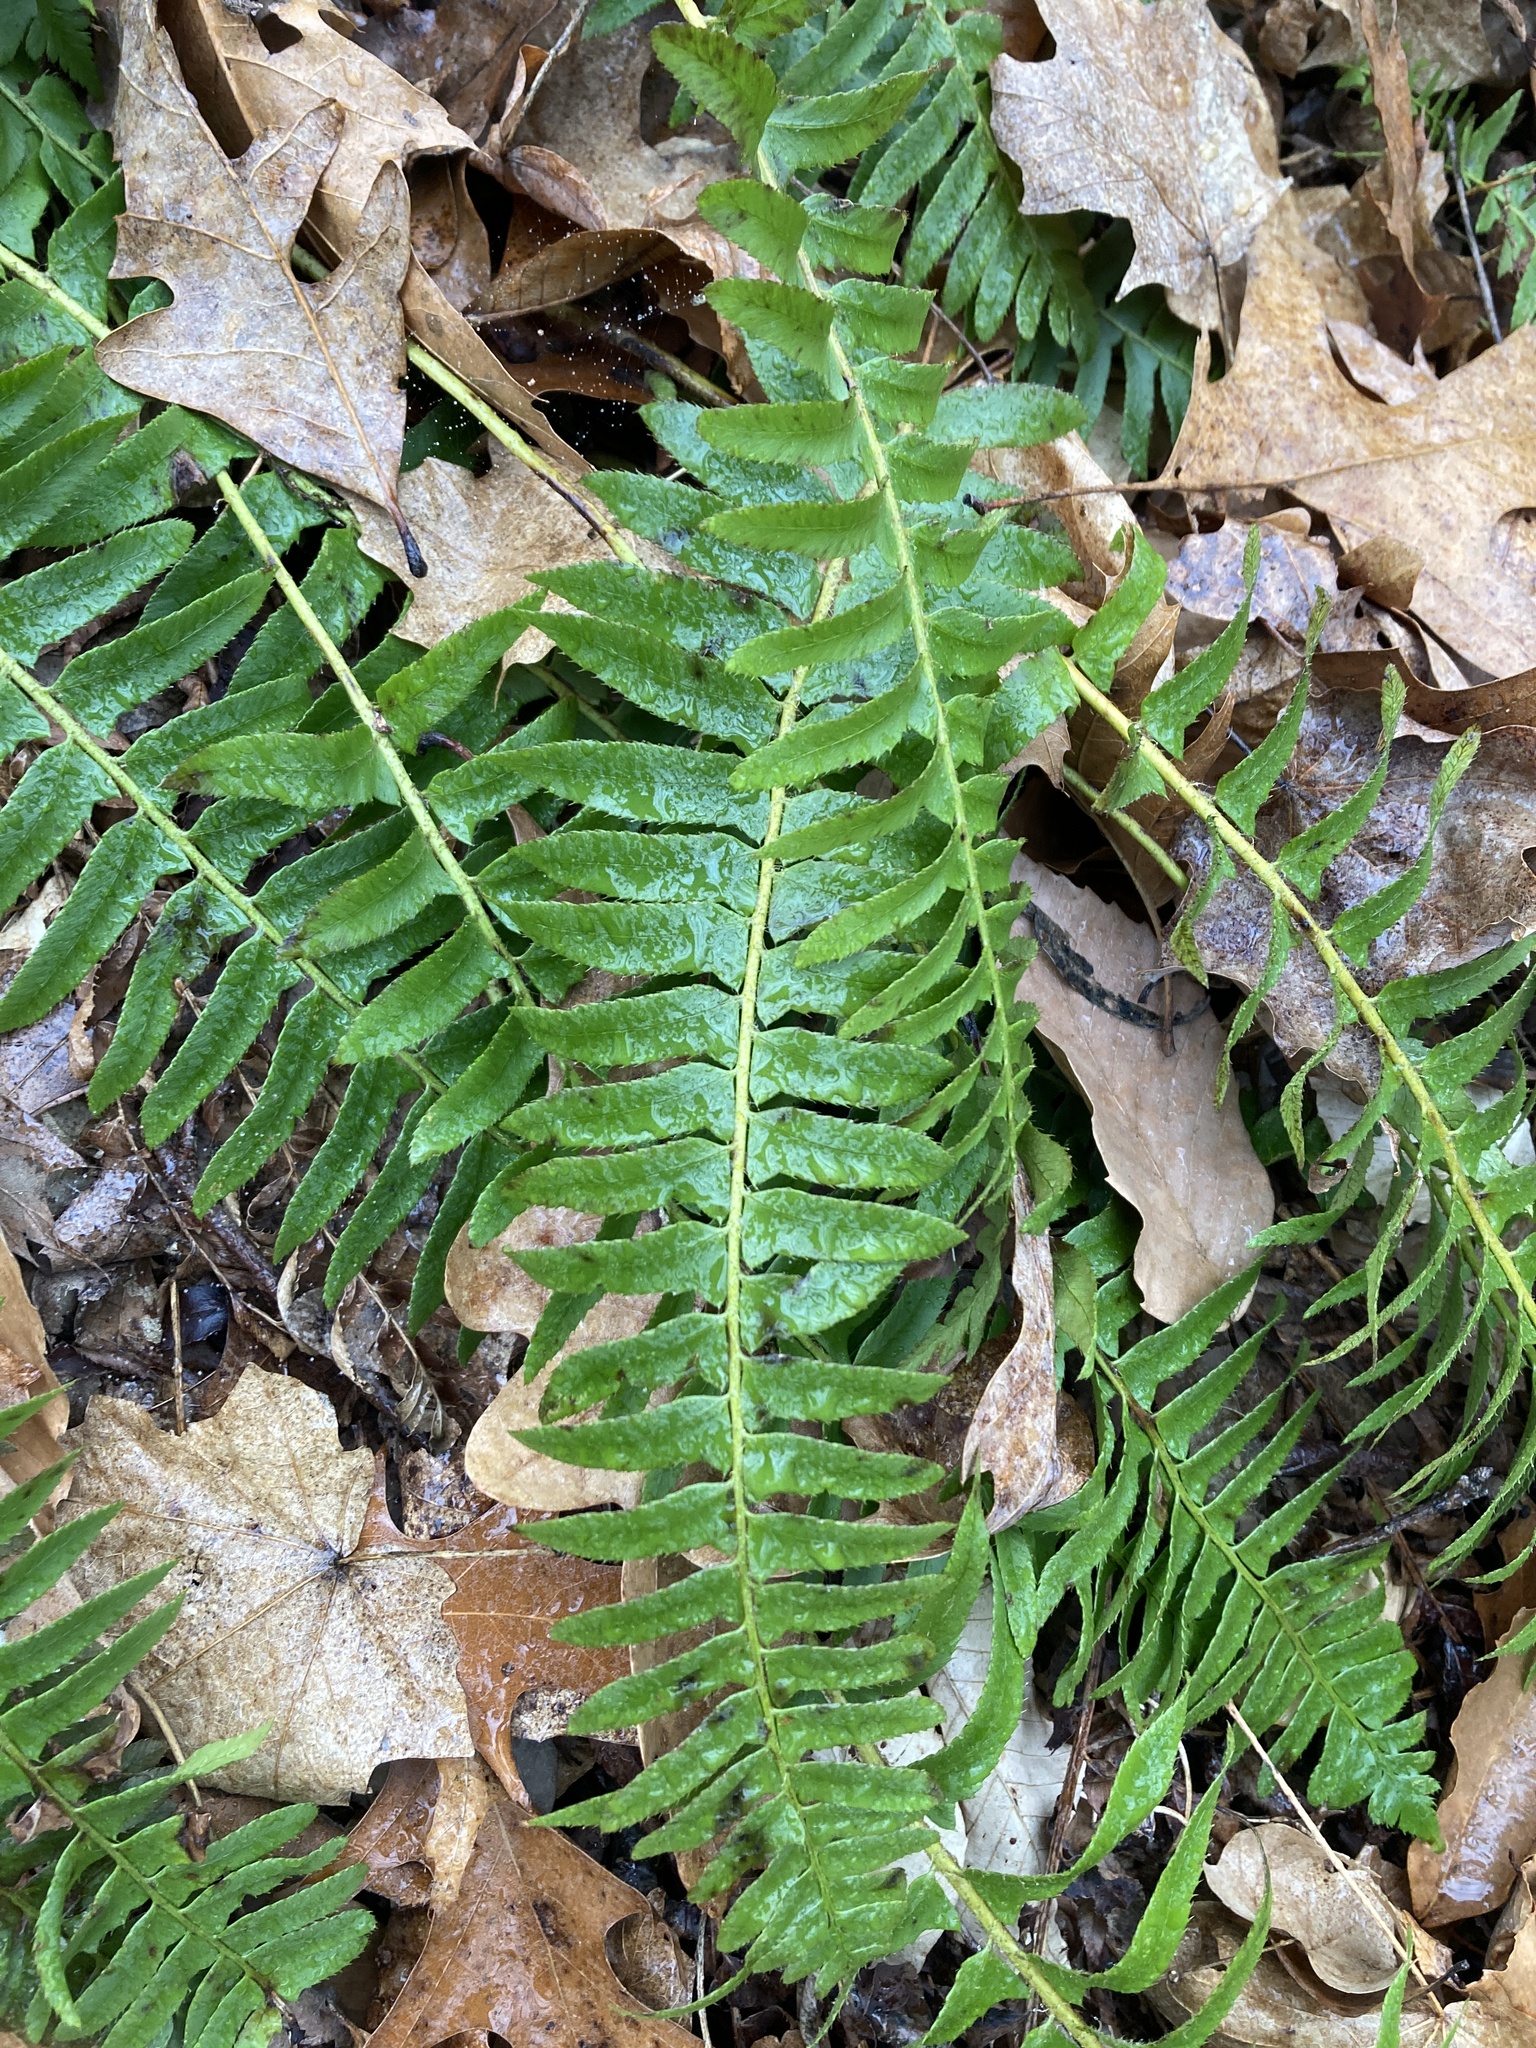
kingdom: Plantae
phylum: Tracheophyta
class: Polypodiopsida
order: Polypodiales
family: Dryopteridaceae
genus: Polystichum
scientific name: Polystichum acrostichoides
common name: Christmas fern
